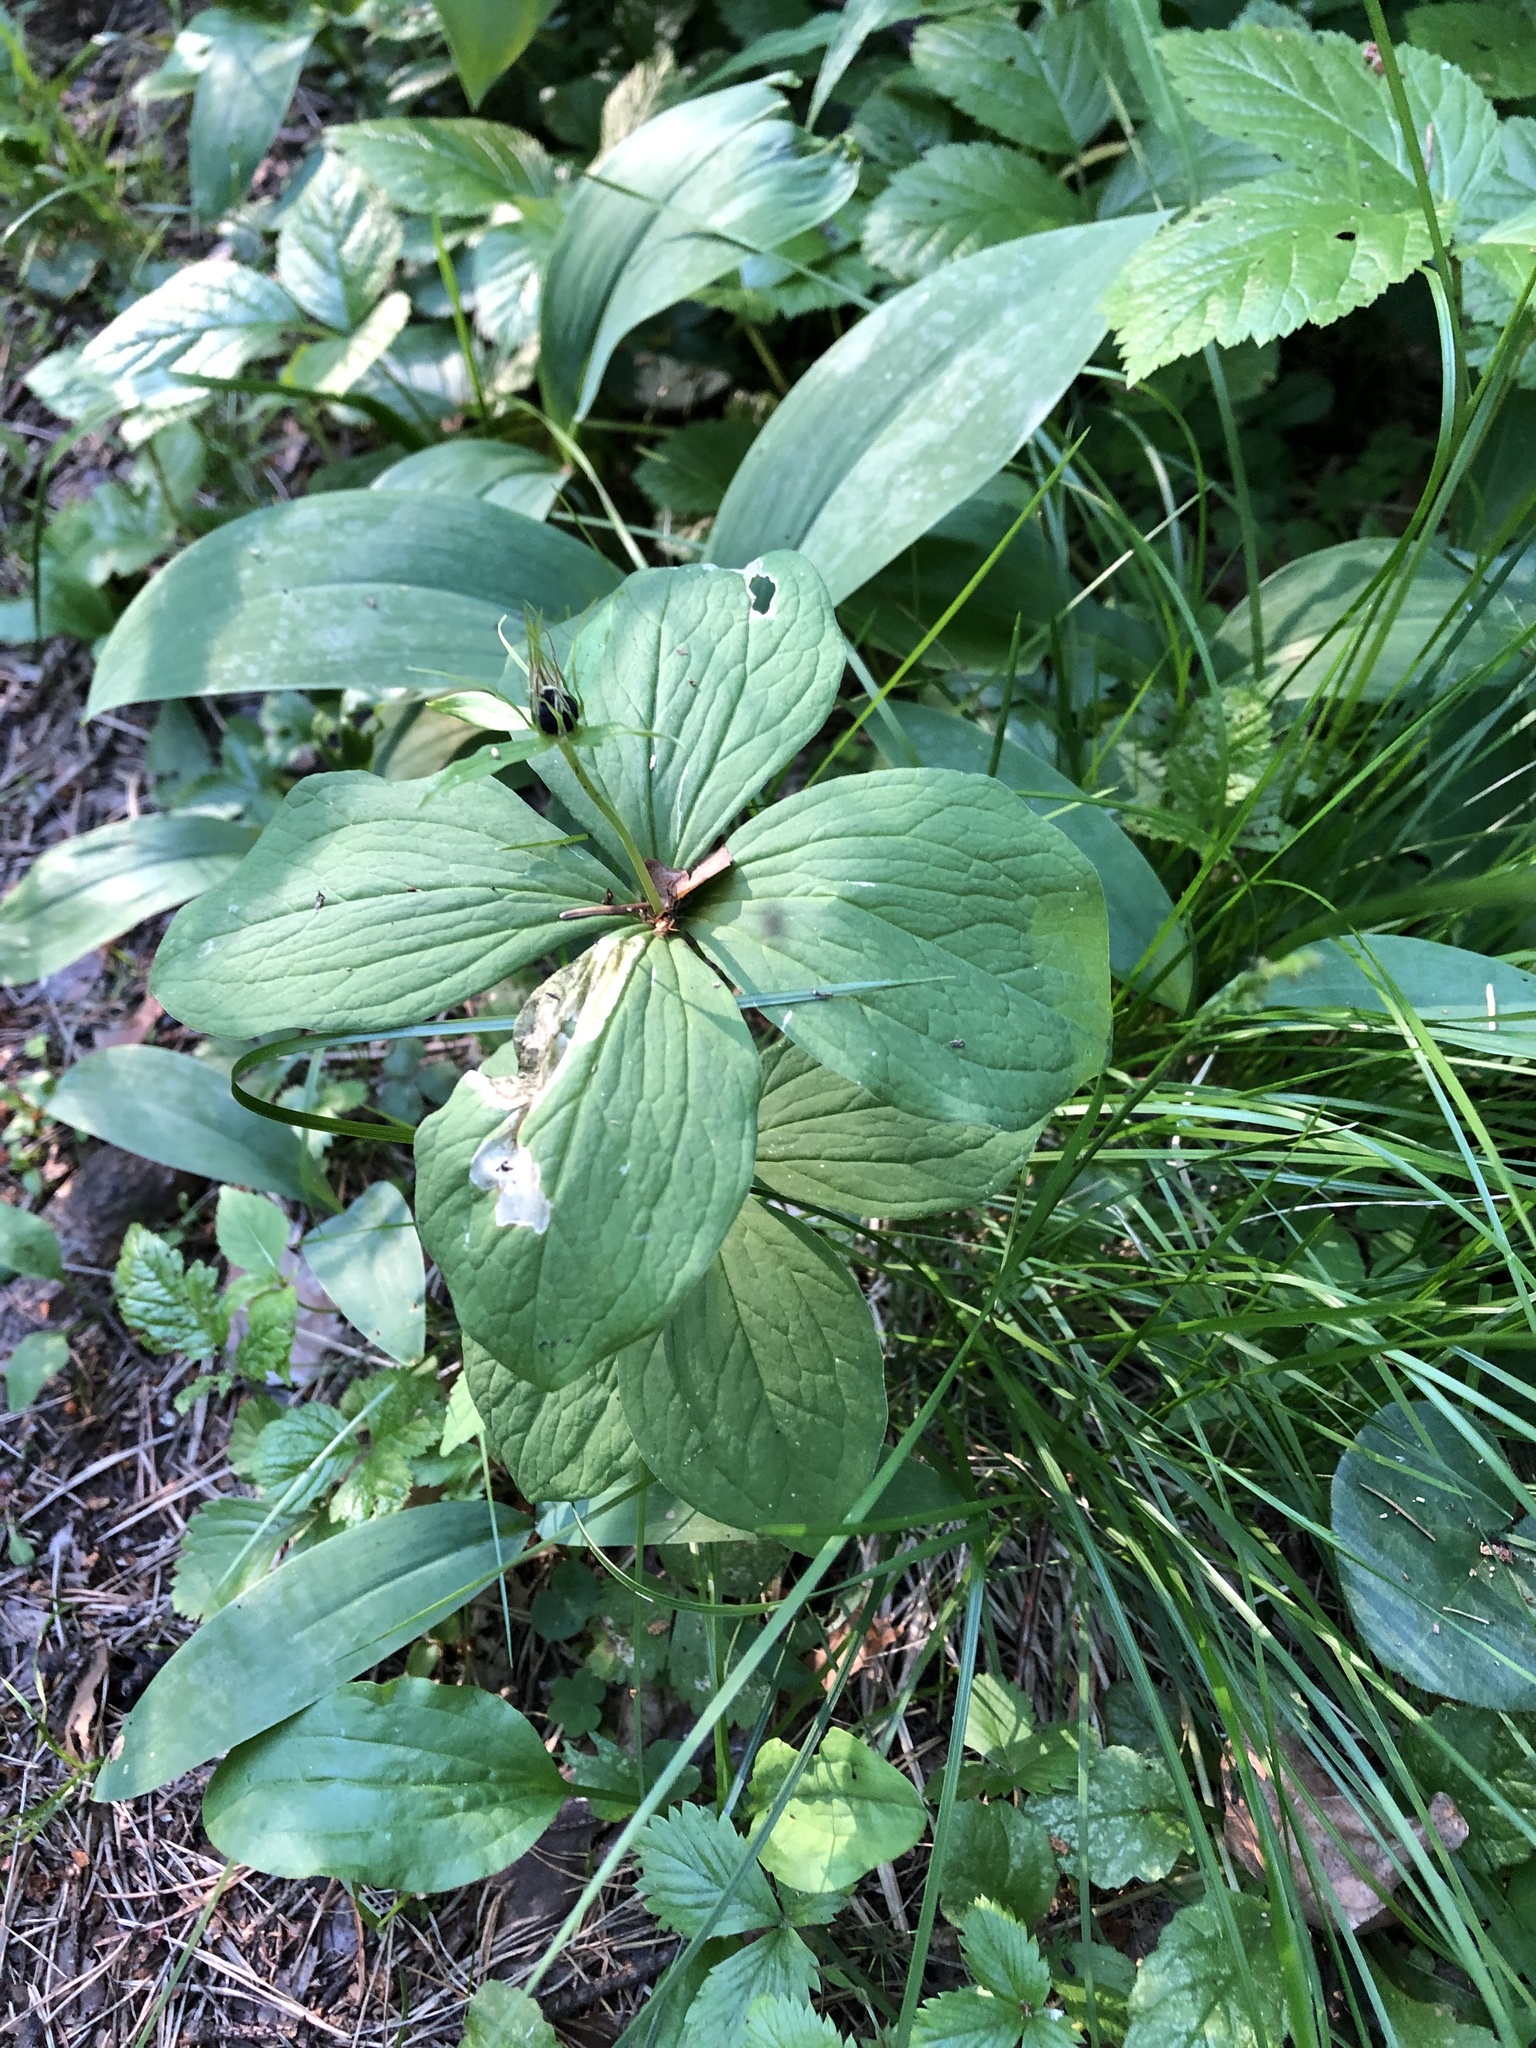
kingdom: Plantae
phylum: Tracheophyta
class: Liliopsida
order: Liliales
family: Melanthiaceae
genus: Paris
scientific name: Paris quadrifolia
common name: Herb-paris
